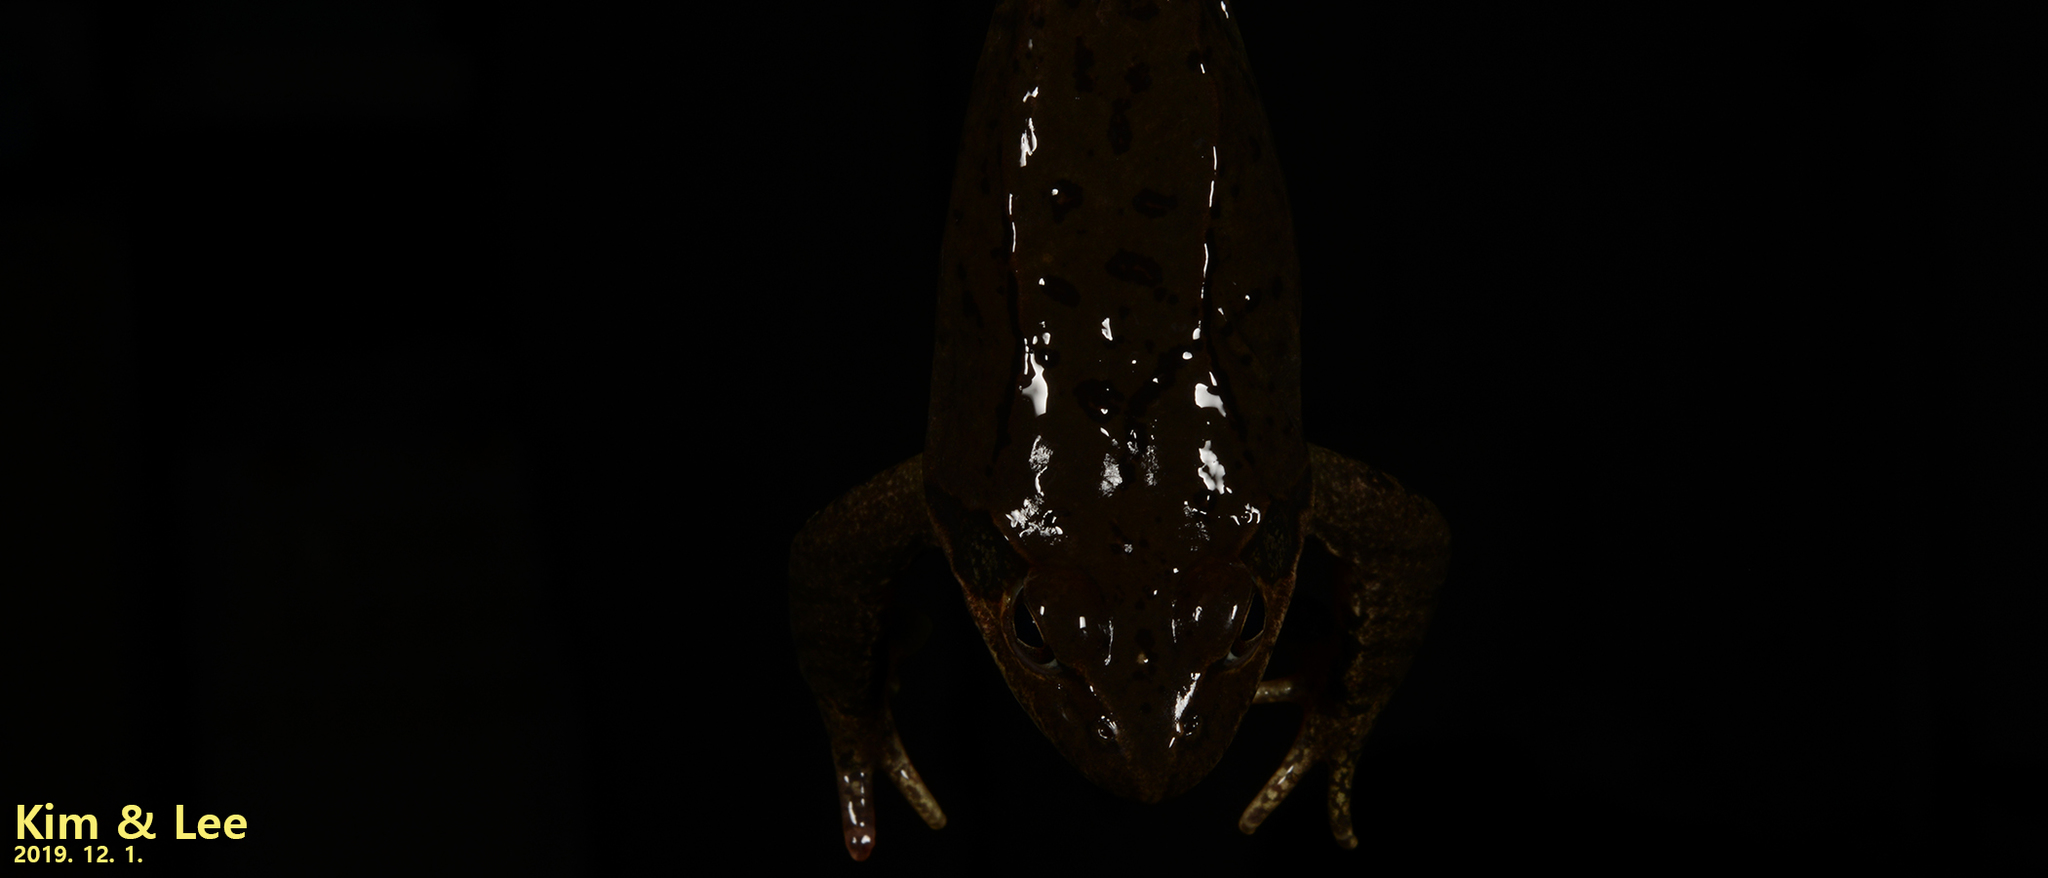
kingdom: Animalia
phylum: Chordata
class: Amphibia
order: Anura
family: Ranidae
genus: Rana
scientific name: Rana dybowskii
